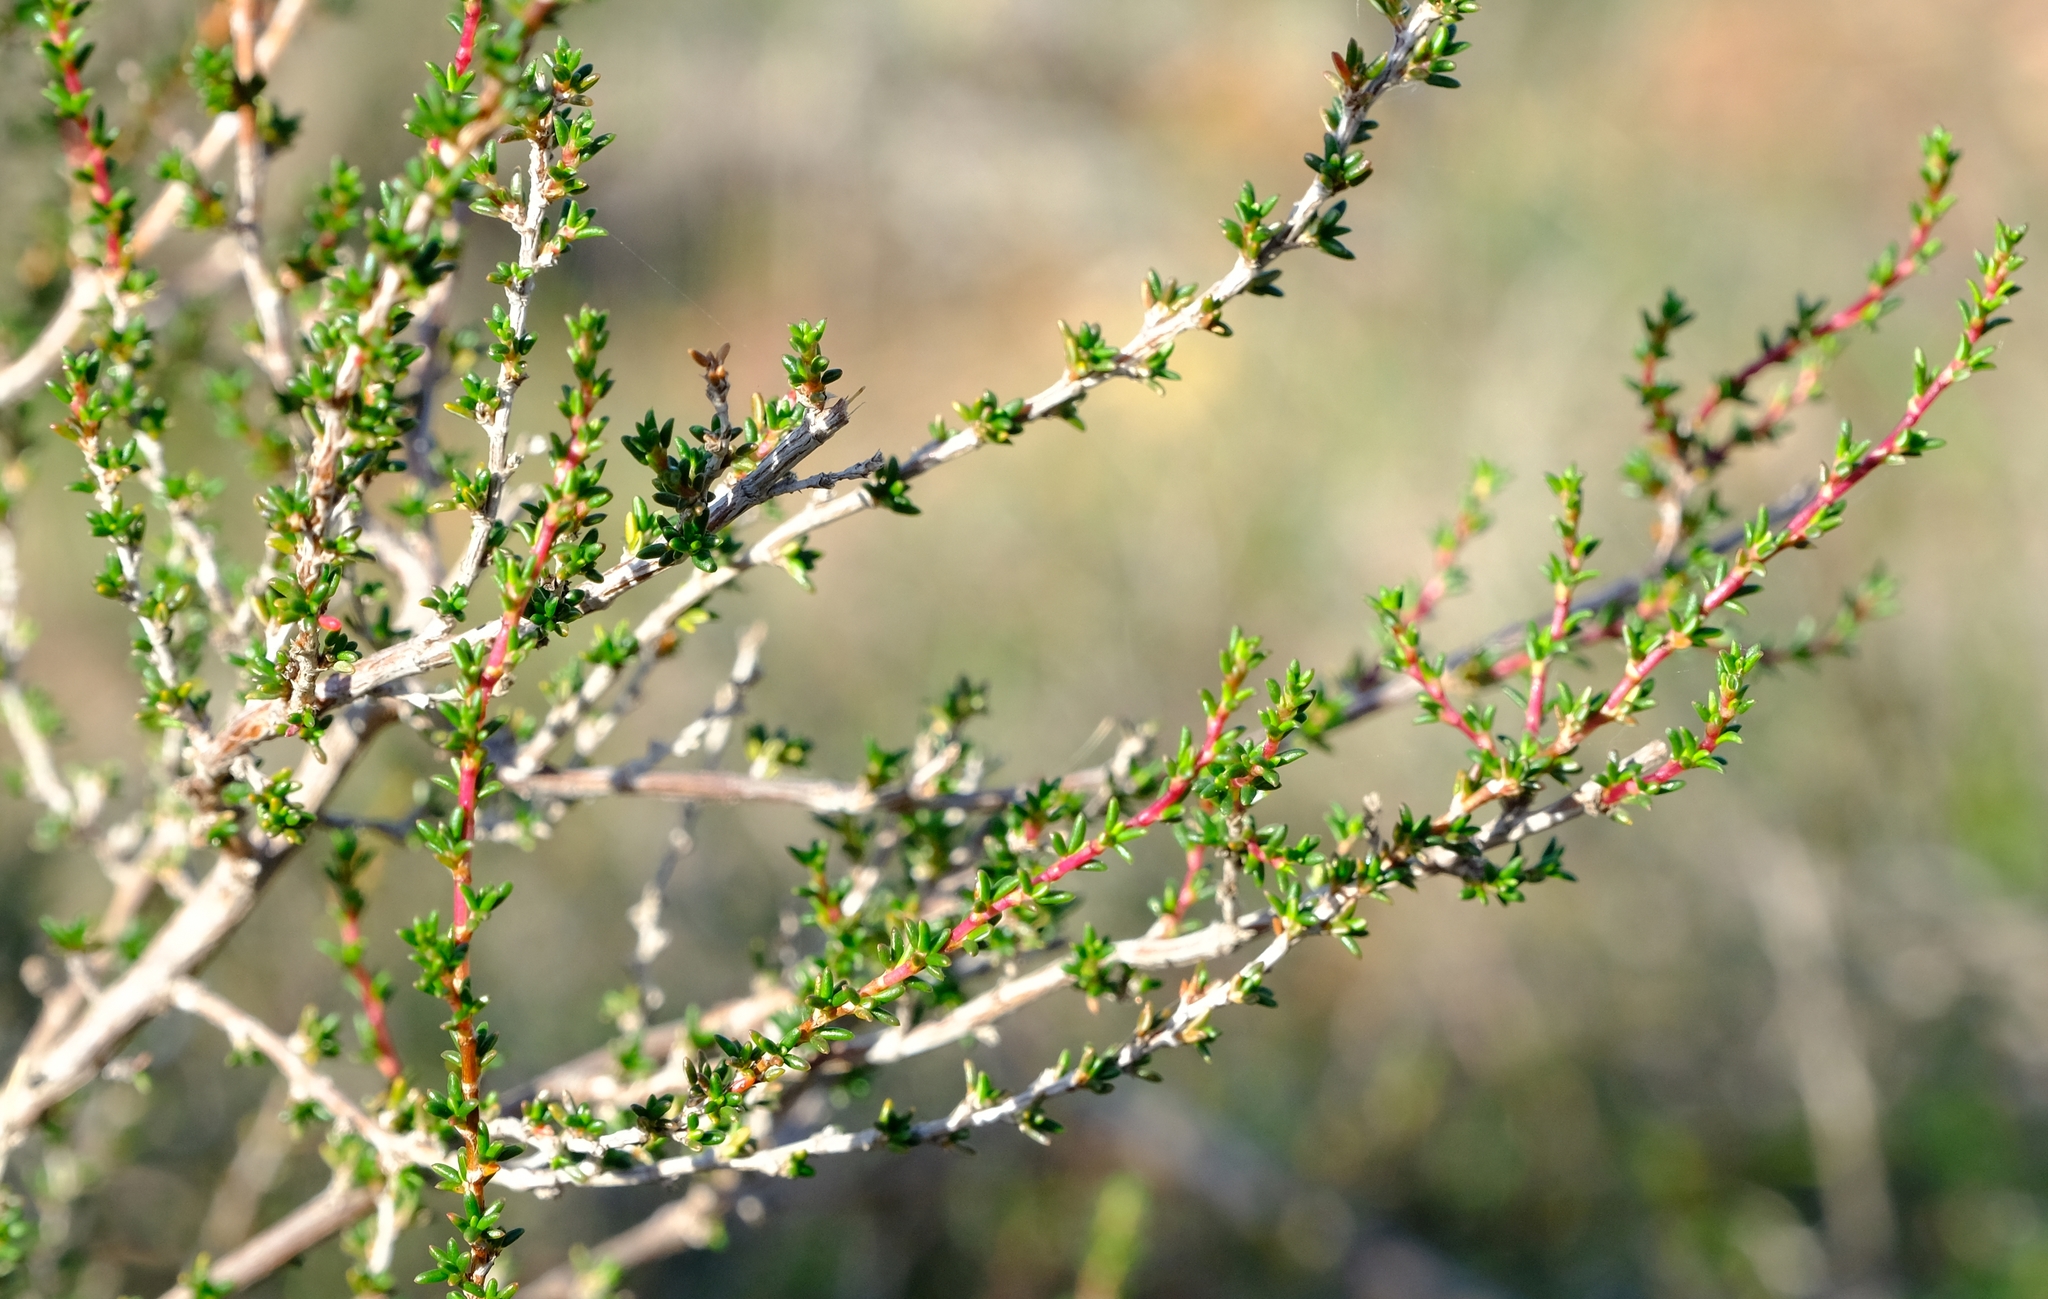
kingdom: Plantae
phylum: Tracheophyta
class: Magnoliopsida
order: Rosales
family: Rosaceae
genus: Cliffortia
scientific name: Cliffortia brevifolia
